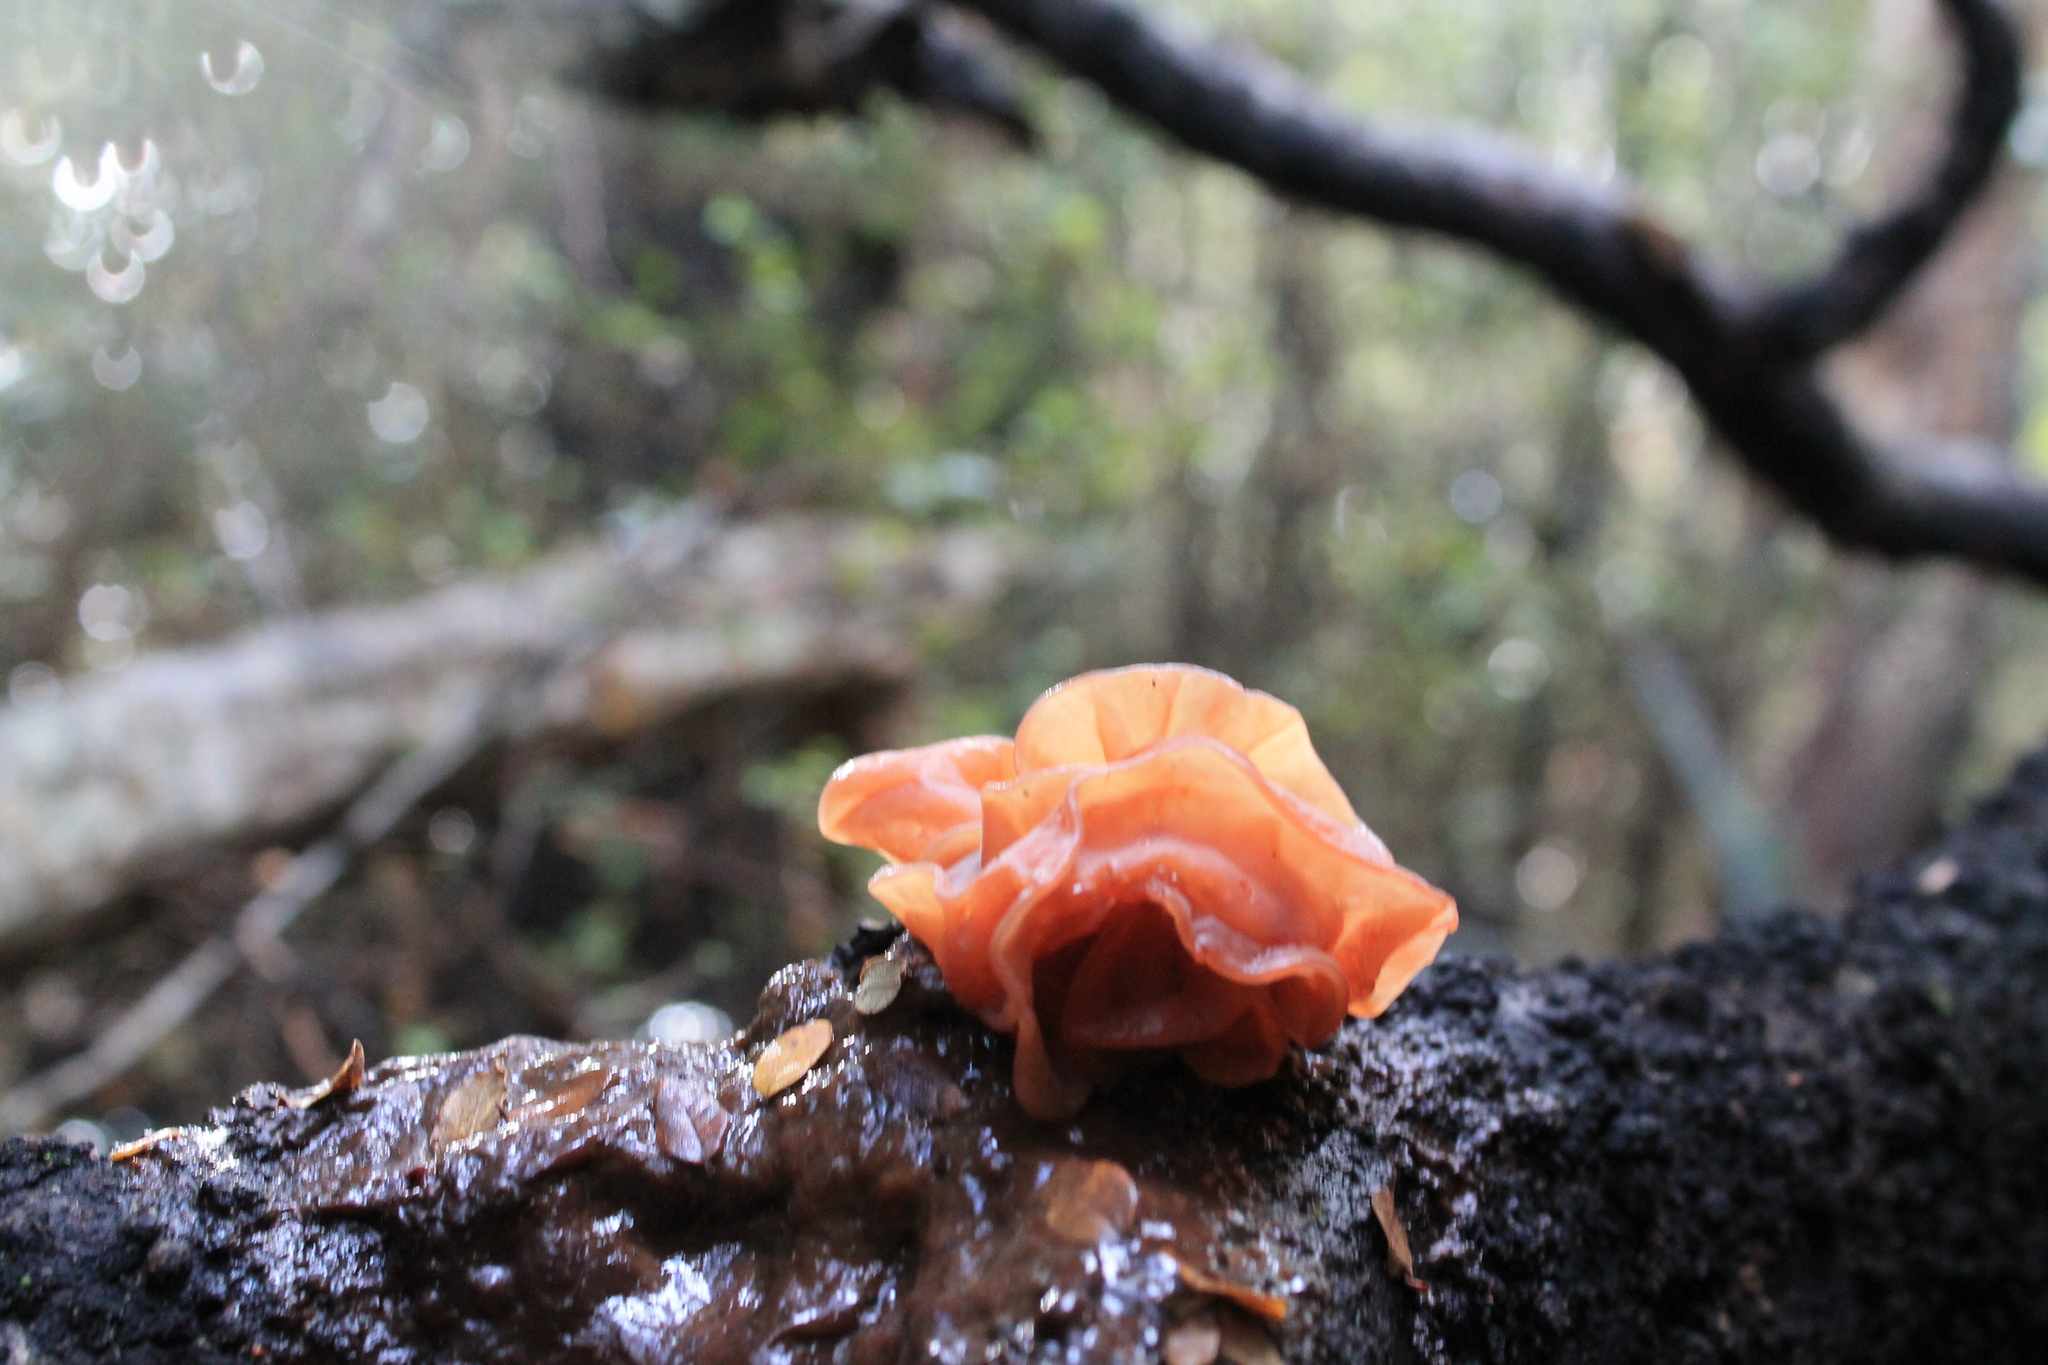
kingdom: Fungi
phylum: Basidiomycota
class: Tremellomycetes
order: Tremellales
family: Tremellaceae
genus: Phaeotremella
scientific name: Phaeotremella foliacea
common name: Leafy brain
